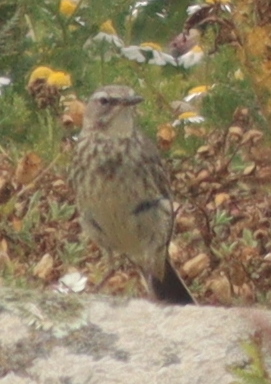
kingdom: Animalia
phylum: Chordata
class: Aves
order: Passeriformes
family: Motacillidae
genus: Anthus
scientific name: Anthus petrosus
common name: Eurasian rock pipit
